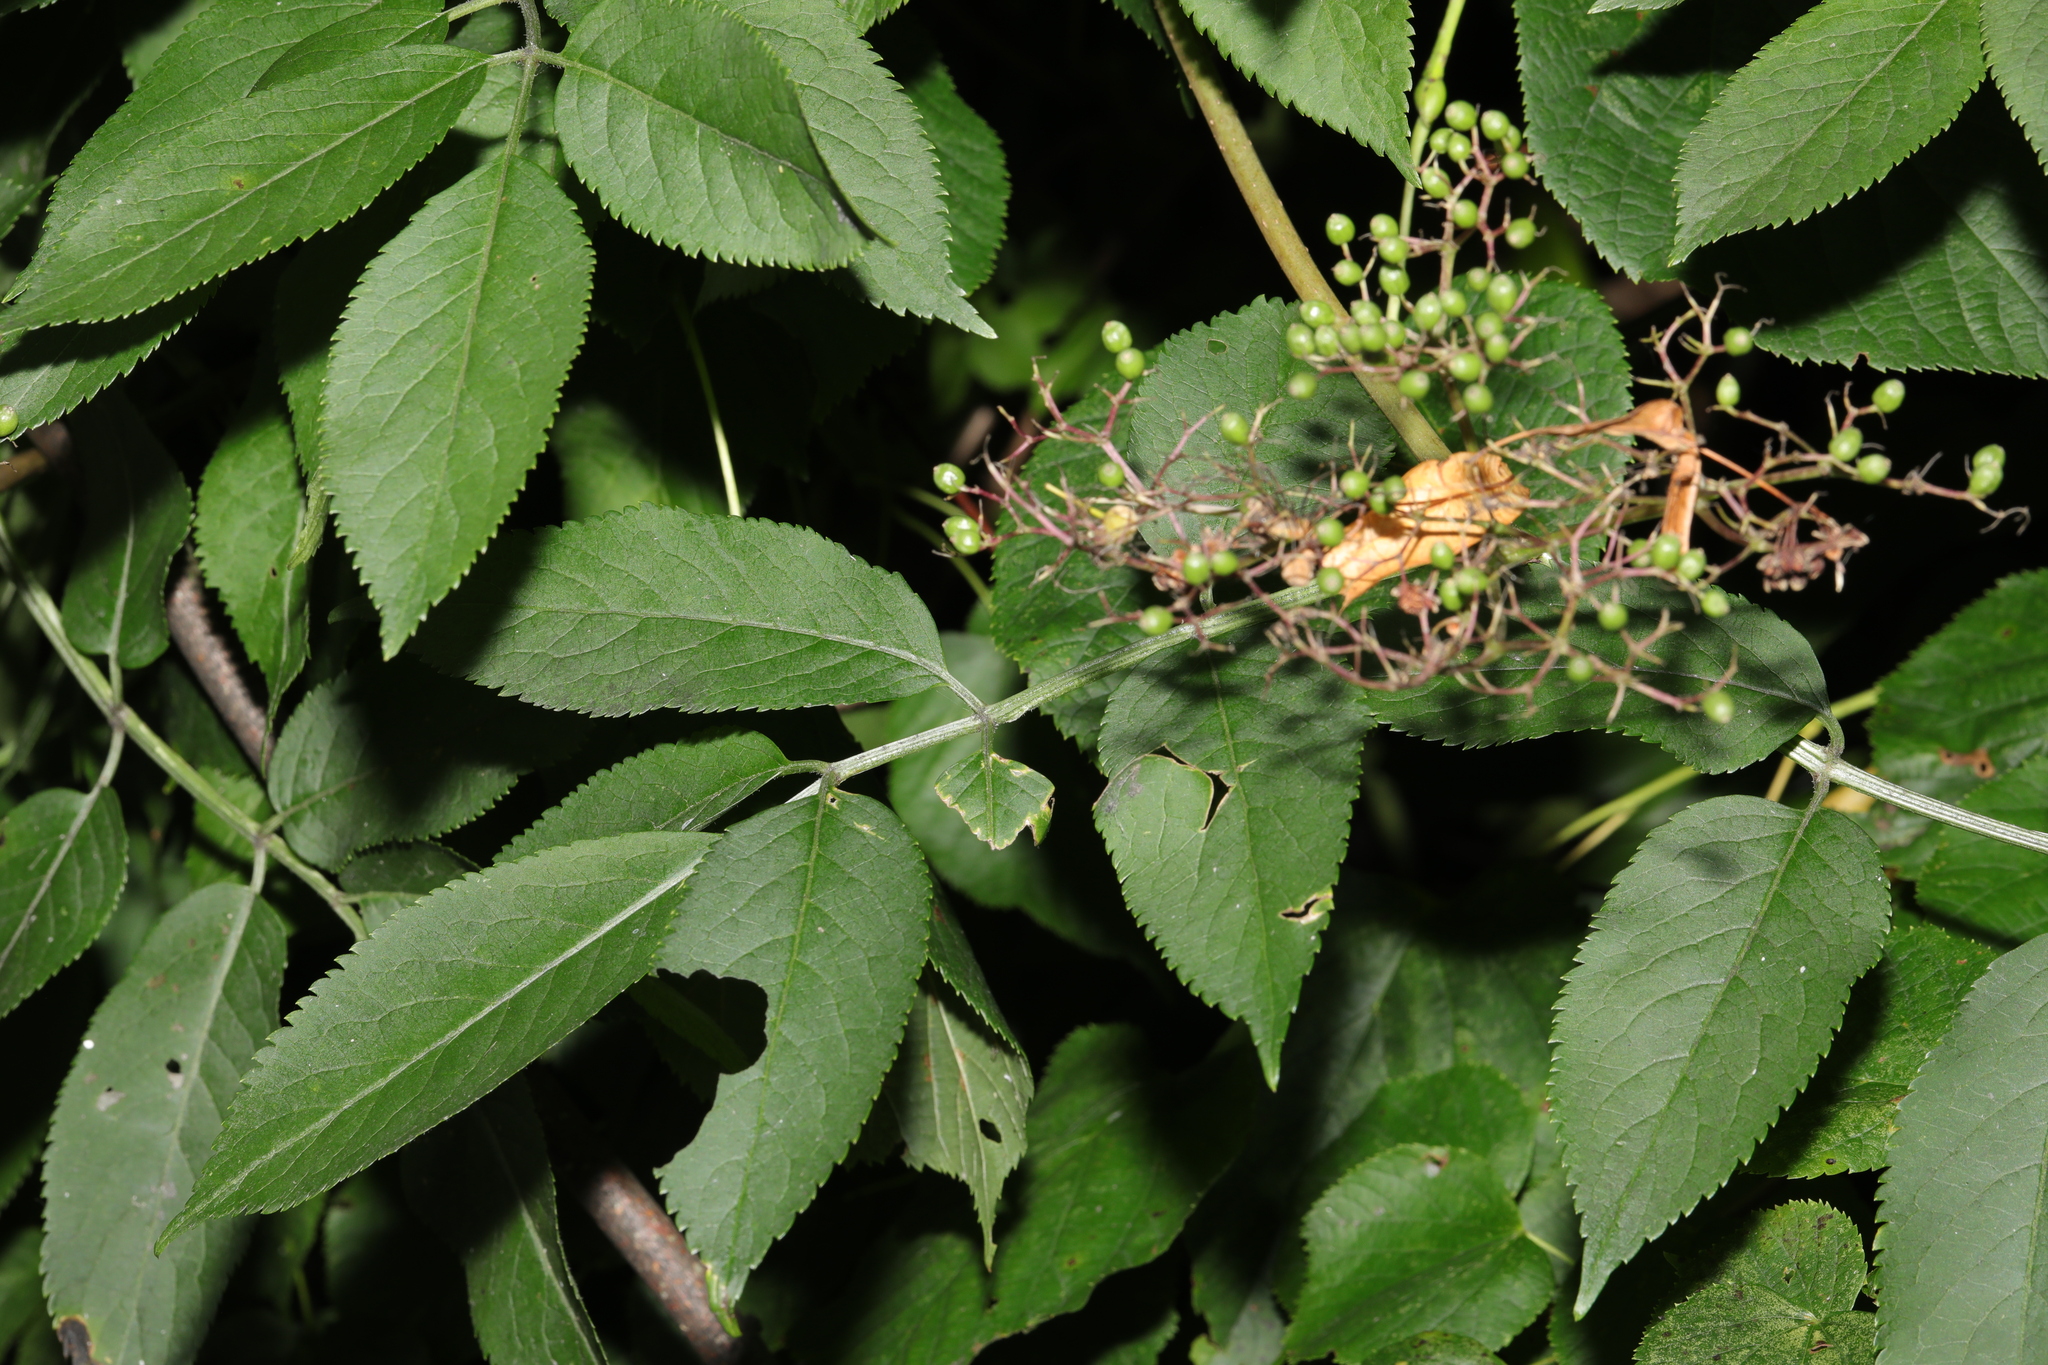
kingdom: Plantae
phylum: Tracheophyta
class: Magnoliopsida
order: Dipsacales
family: Viburnaceae
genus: Sambucus
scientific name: Sambucus nigra
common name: Elder
